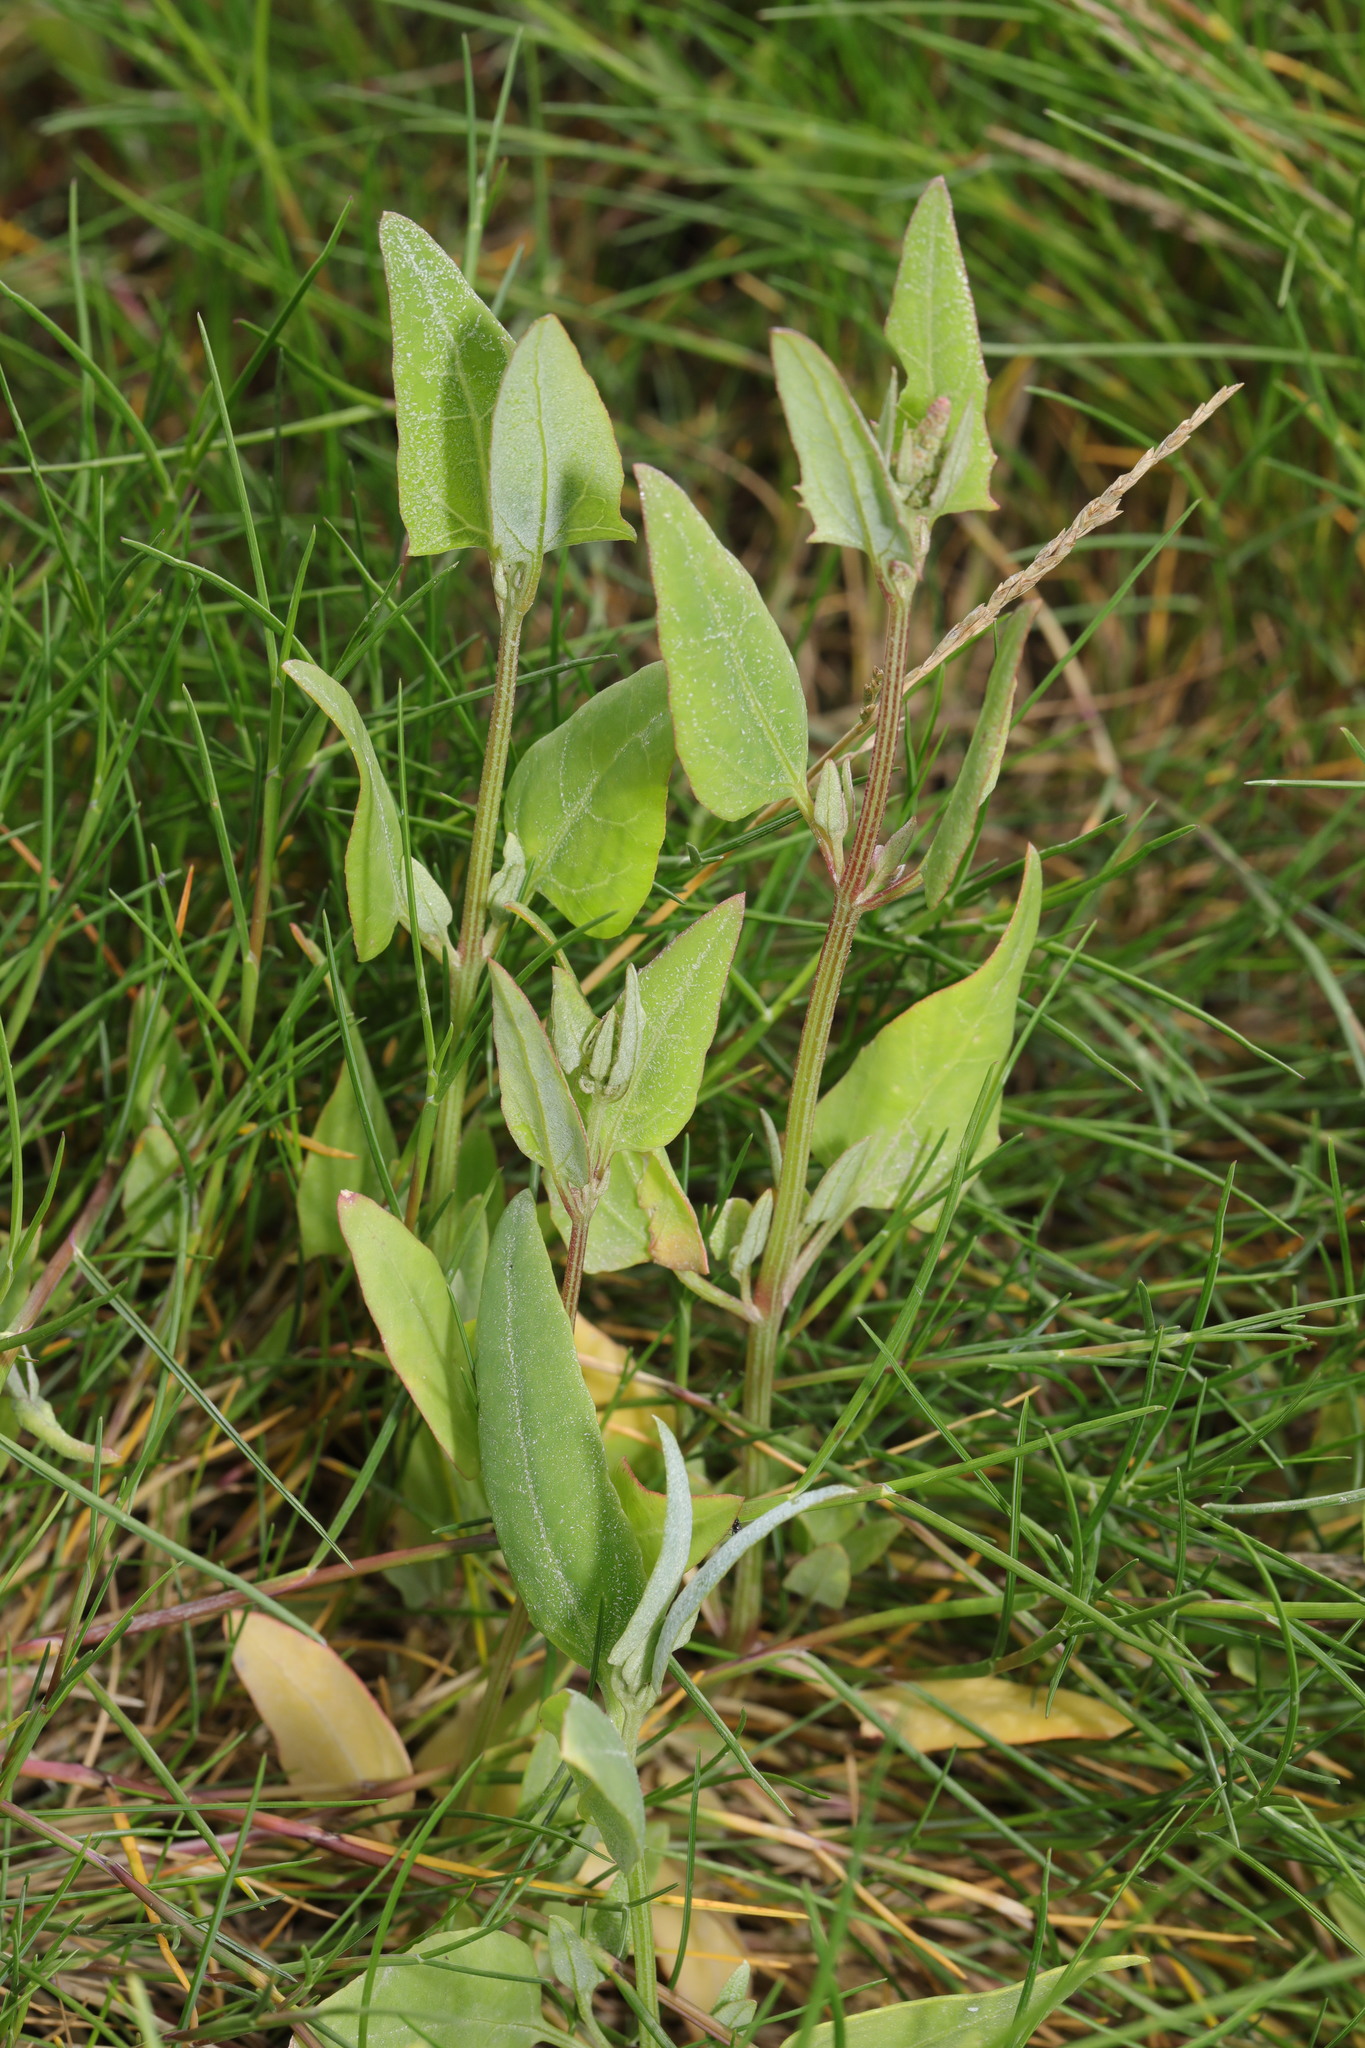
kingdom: Plantae
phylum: Tracheophyta
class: Magnoliopsida
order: Caryophyllales
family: Amaranthaceae
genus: Atriplex
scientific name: Atriplex prostrata
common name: Spear-leaved orache
